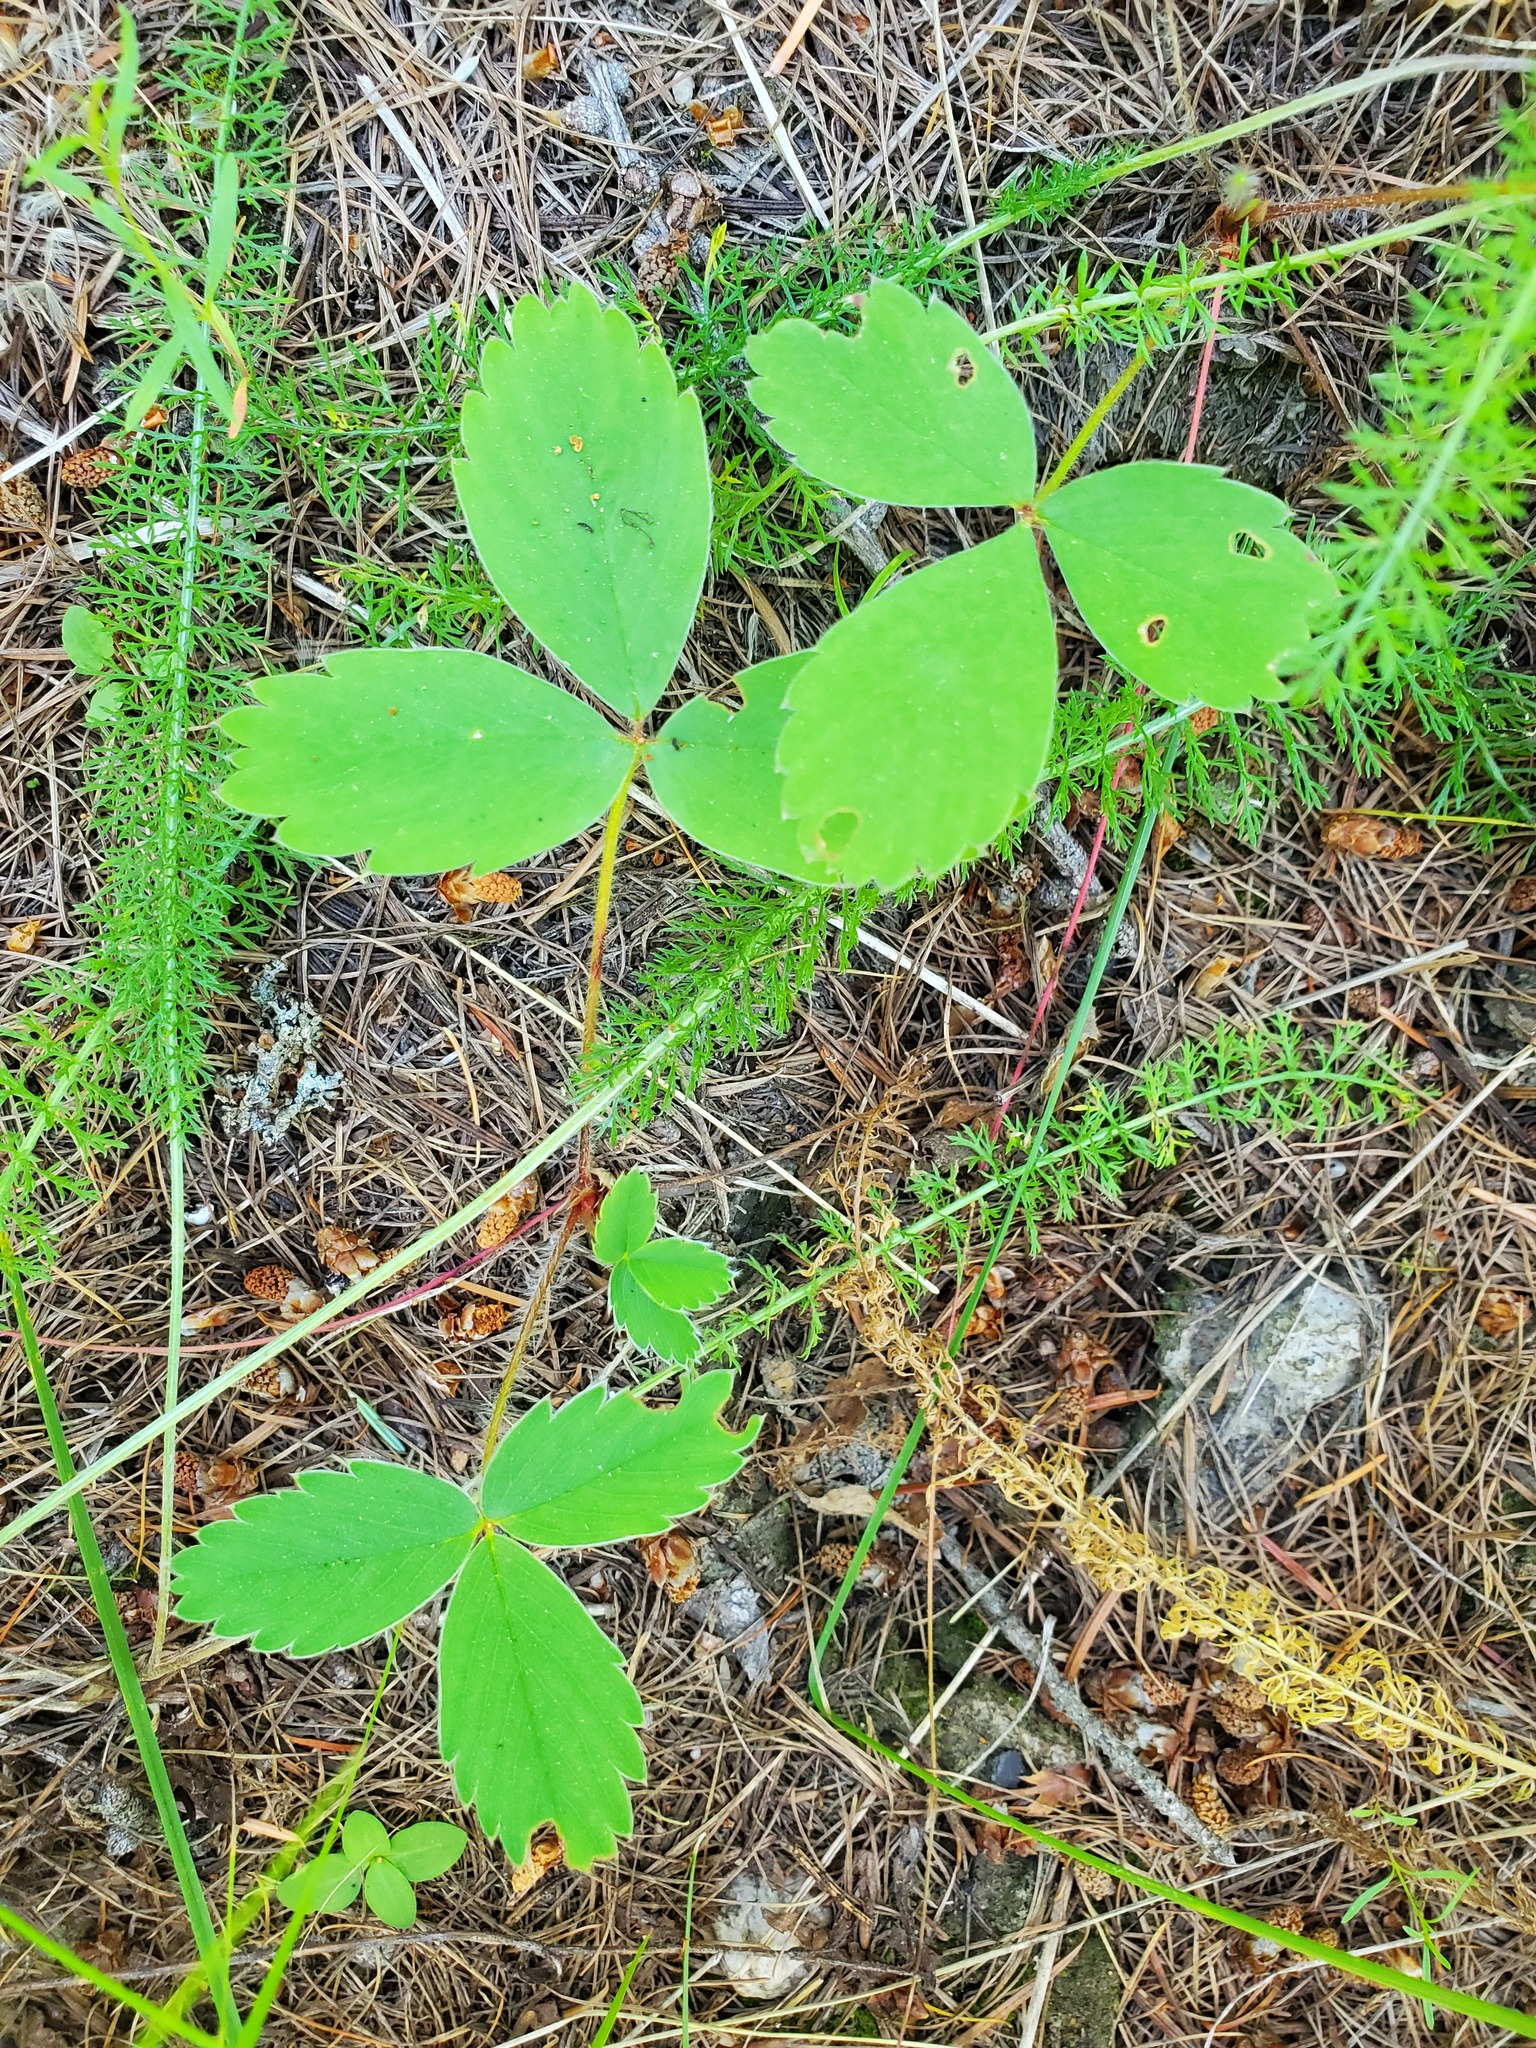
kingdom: Plantae
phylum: Tracheophyta
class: Magnoliopsida
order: Rosales
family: Rosaceae
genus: Fragaria
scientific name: Fragaria virginiana
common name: Thickleaved wild strawberry
